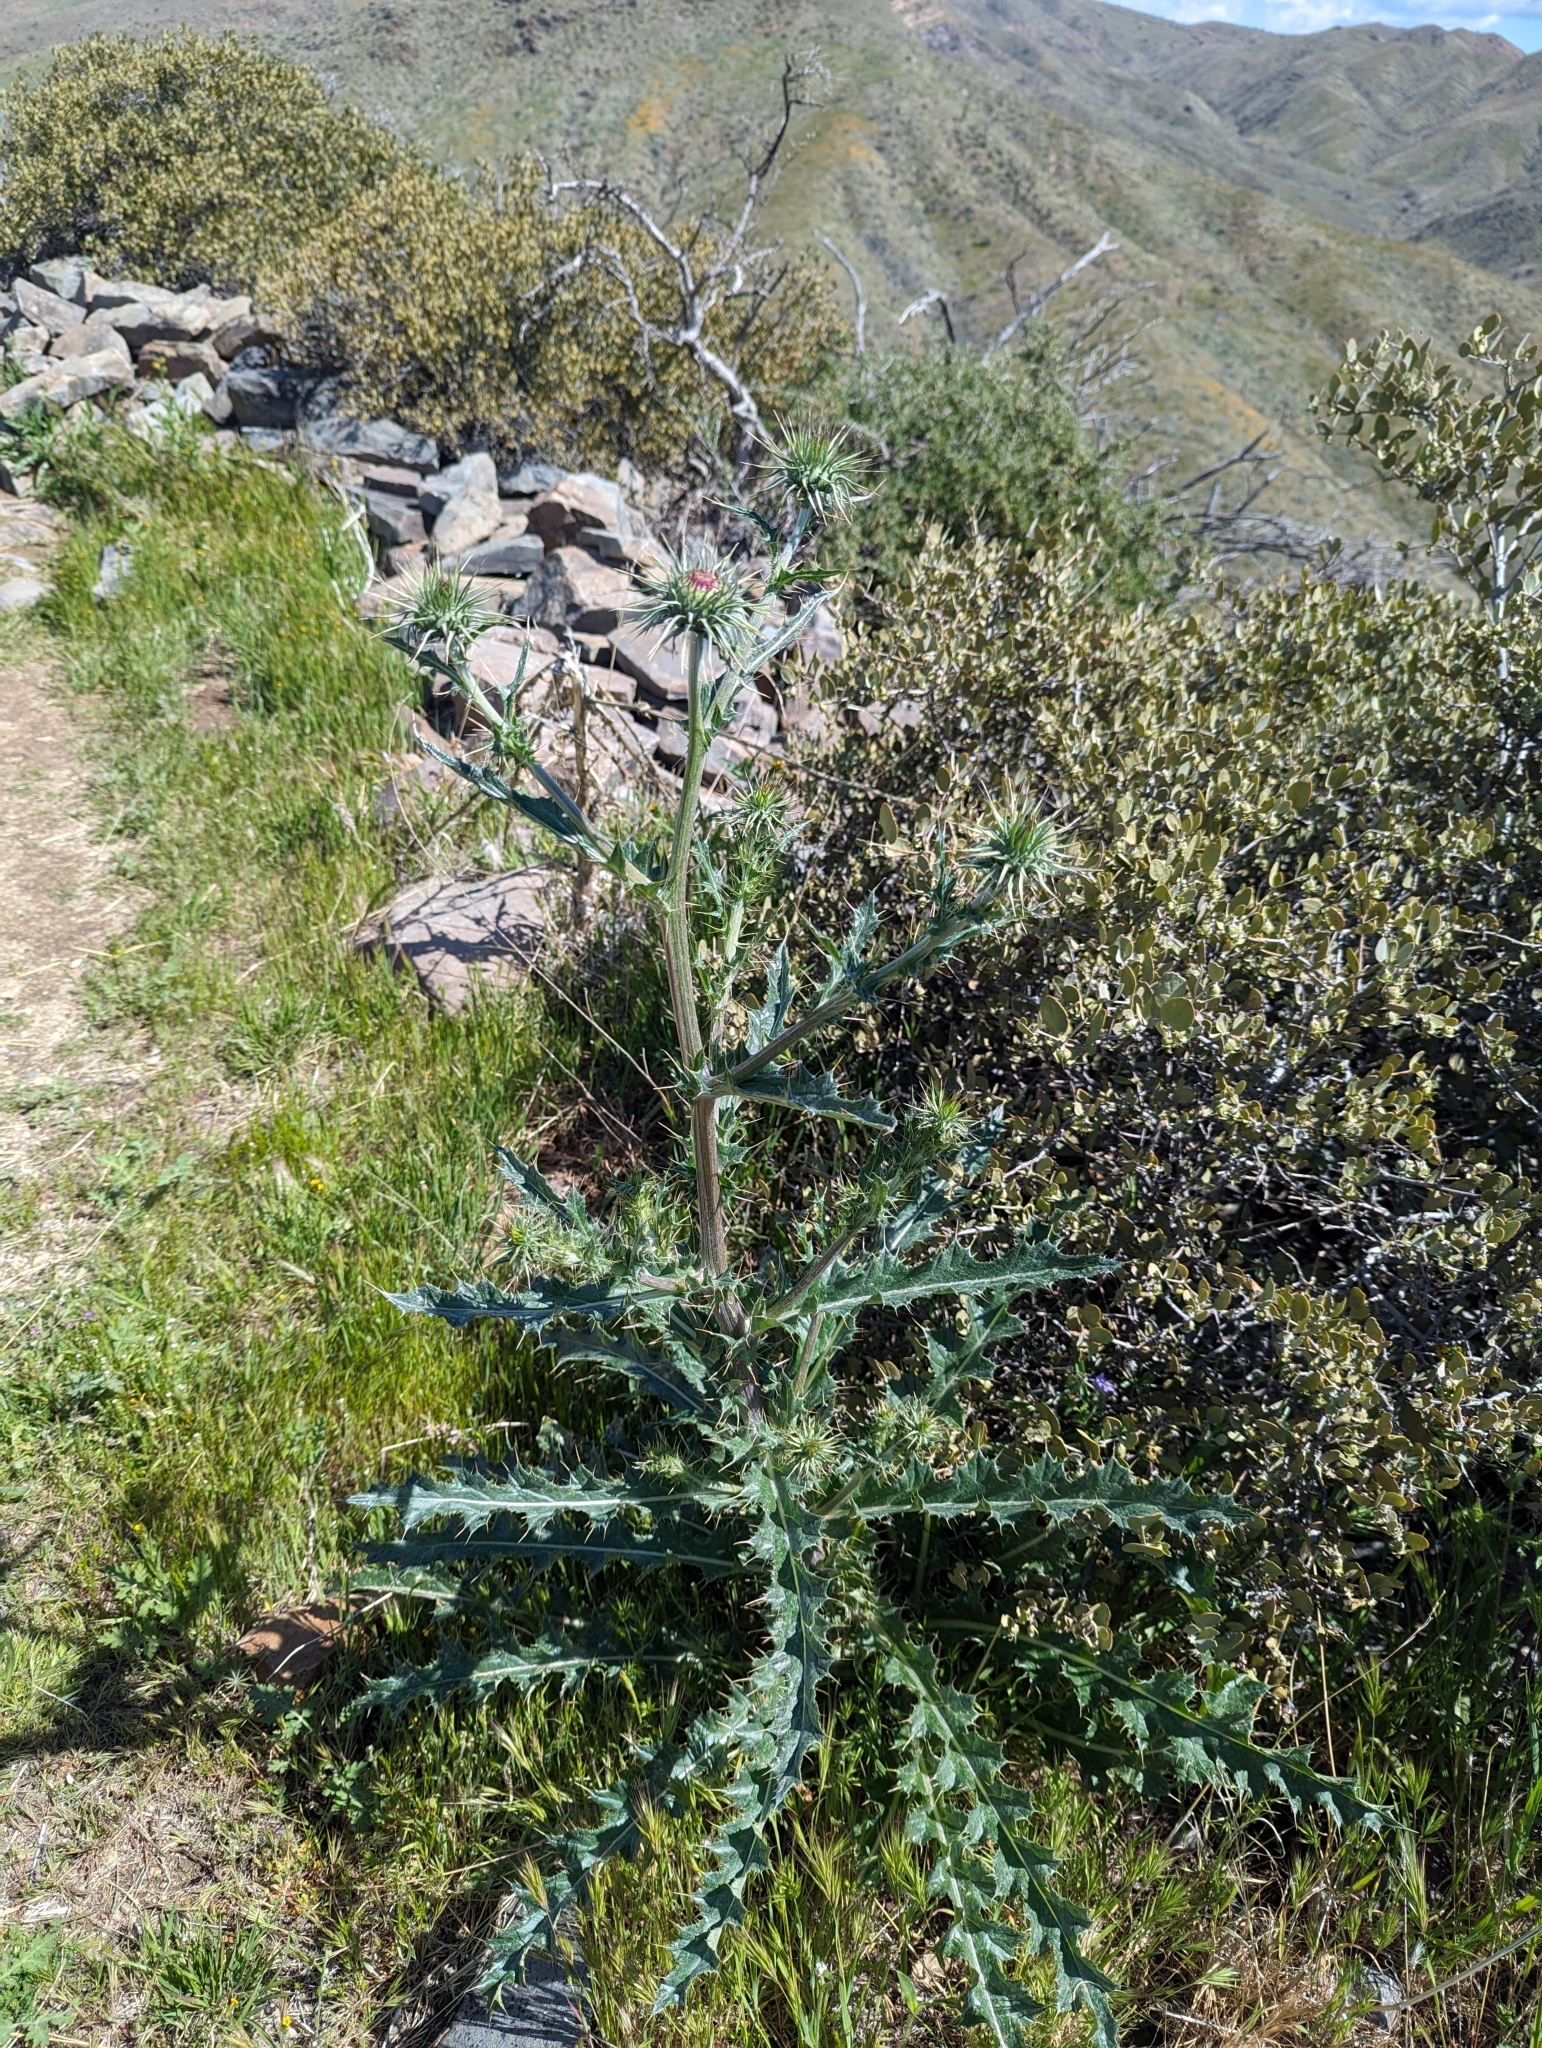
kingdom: Plantae
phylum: Tracheophyta
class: Magnoliopsida
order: Asterales
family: Asteraceae
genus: Cirsium
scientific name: Cirsium neomexicanum
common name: New mexico thistle
